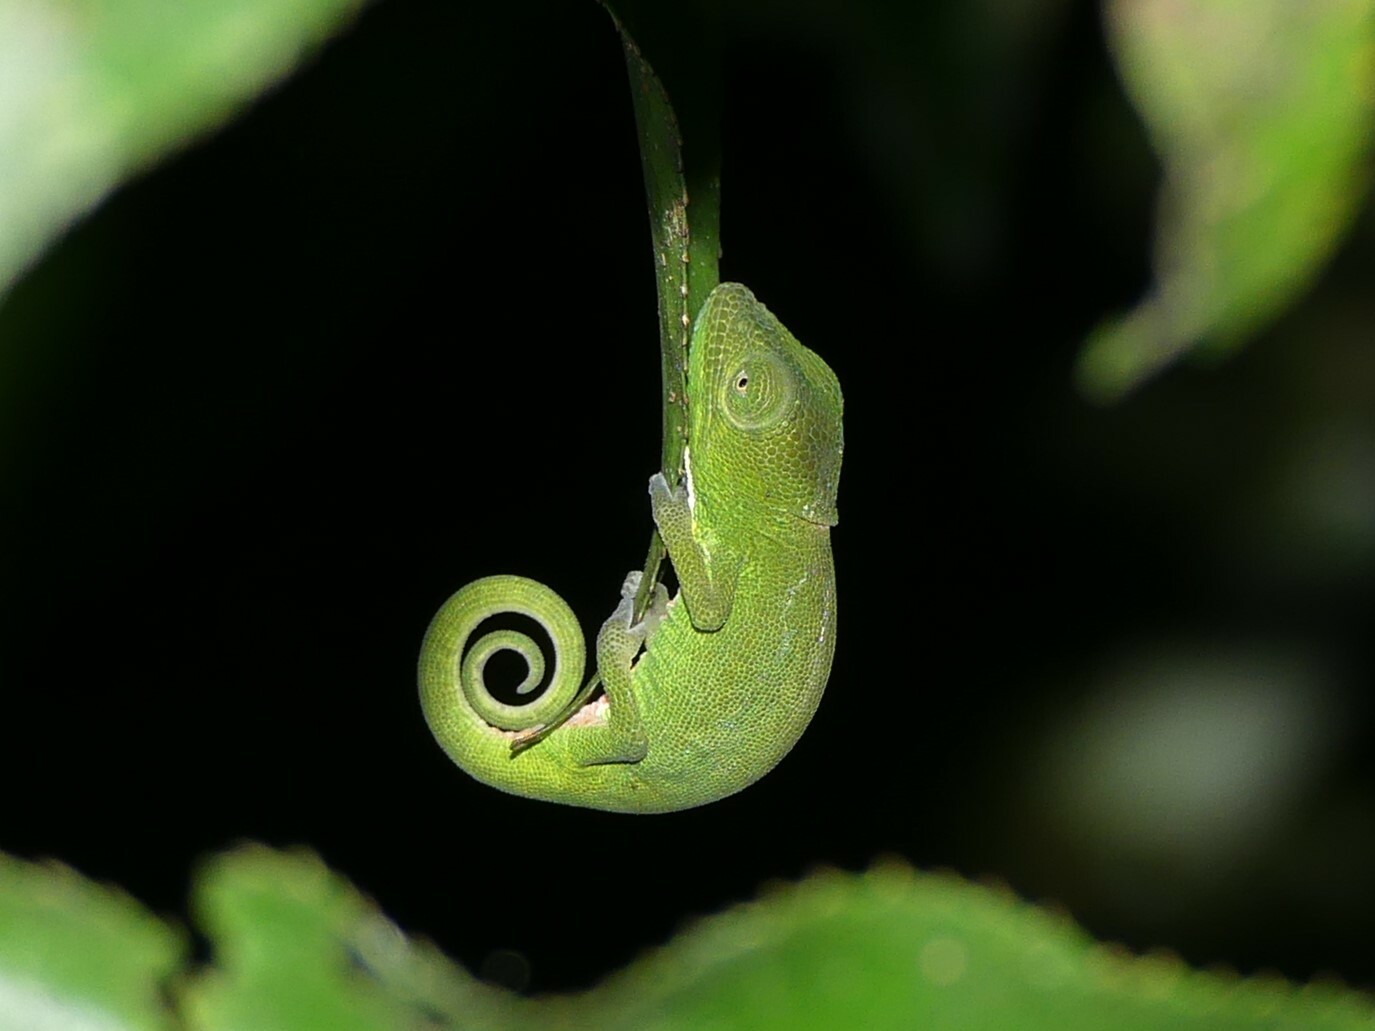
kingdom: Animalia
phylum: Chordata
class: Squamata
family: Chamaeleonidae
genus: Calumma
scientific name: Calumma glawi
